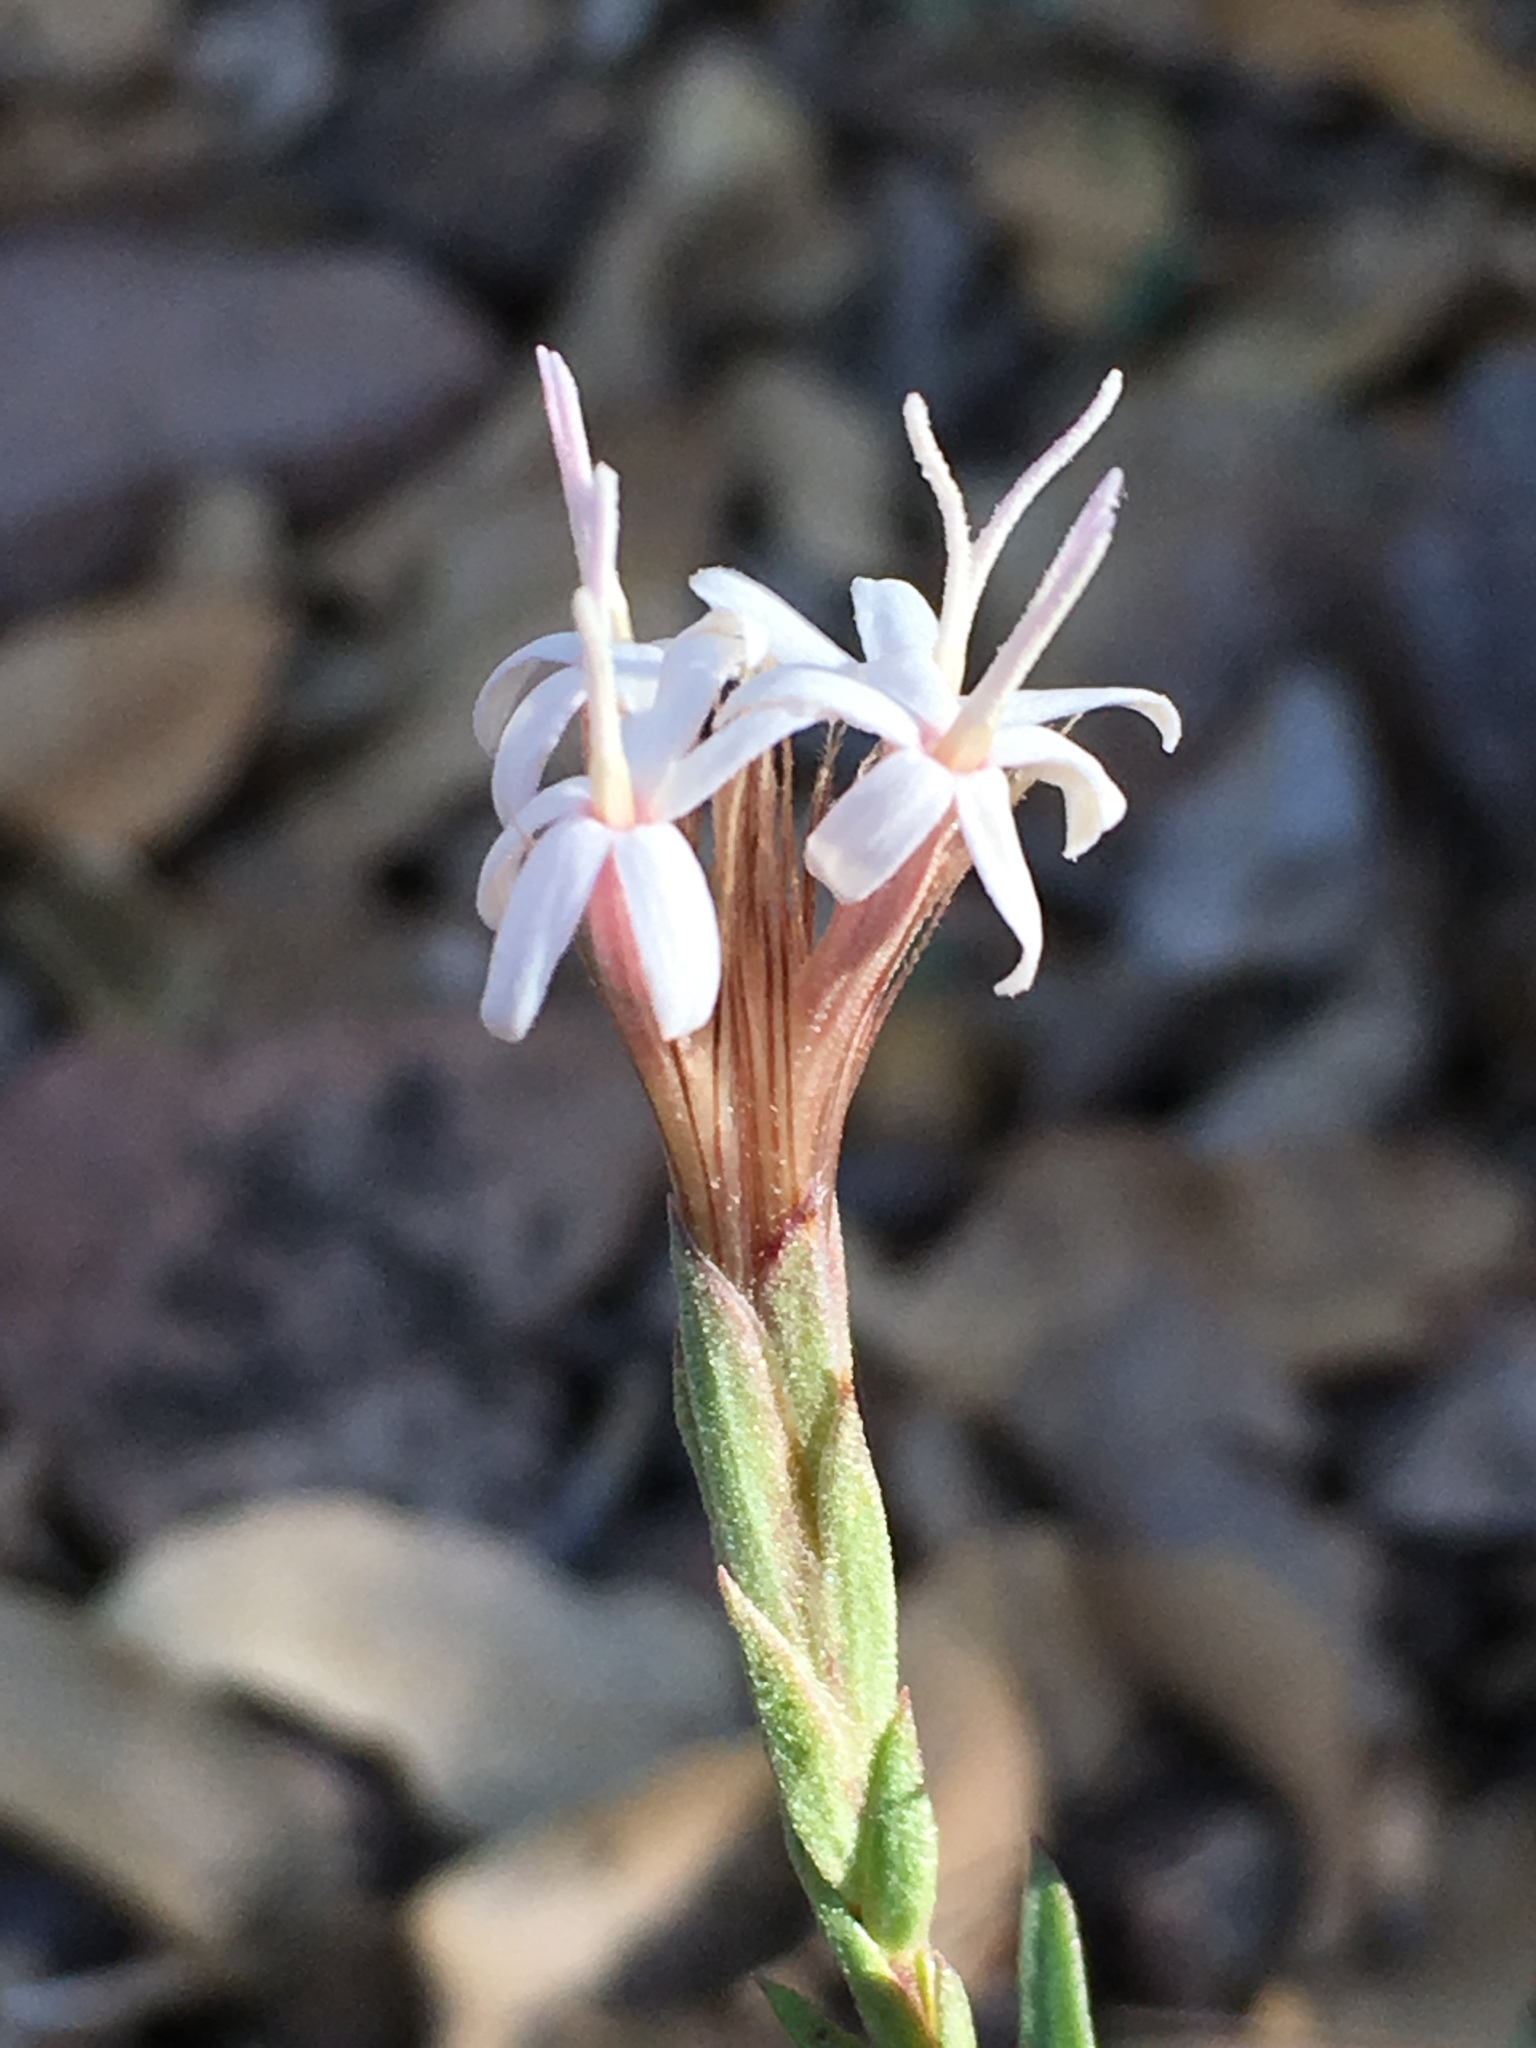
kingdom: Plantae
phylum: Tracheophyta
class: Magnoliopsida
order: Asterales
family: Asteraceae
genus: Carphochaete
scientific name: Carphochaete bigelovii
